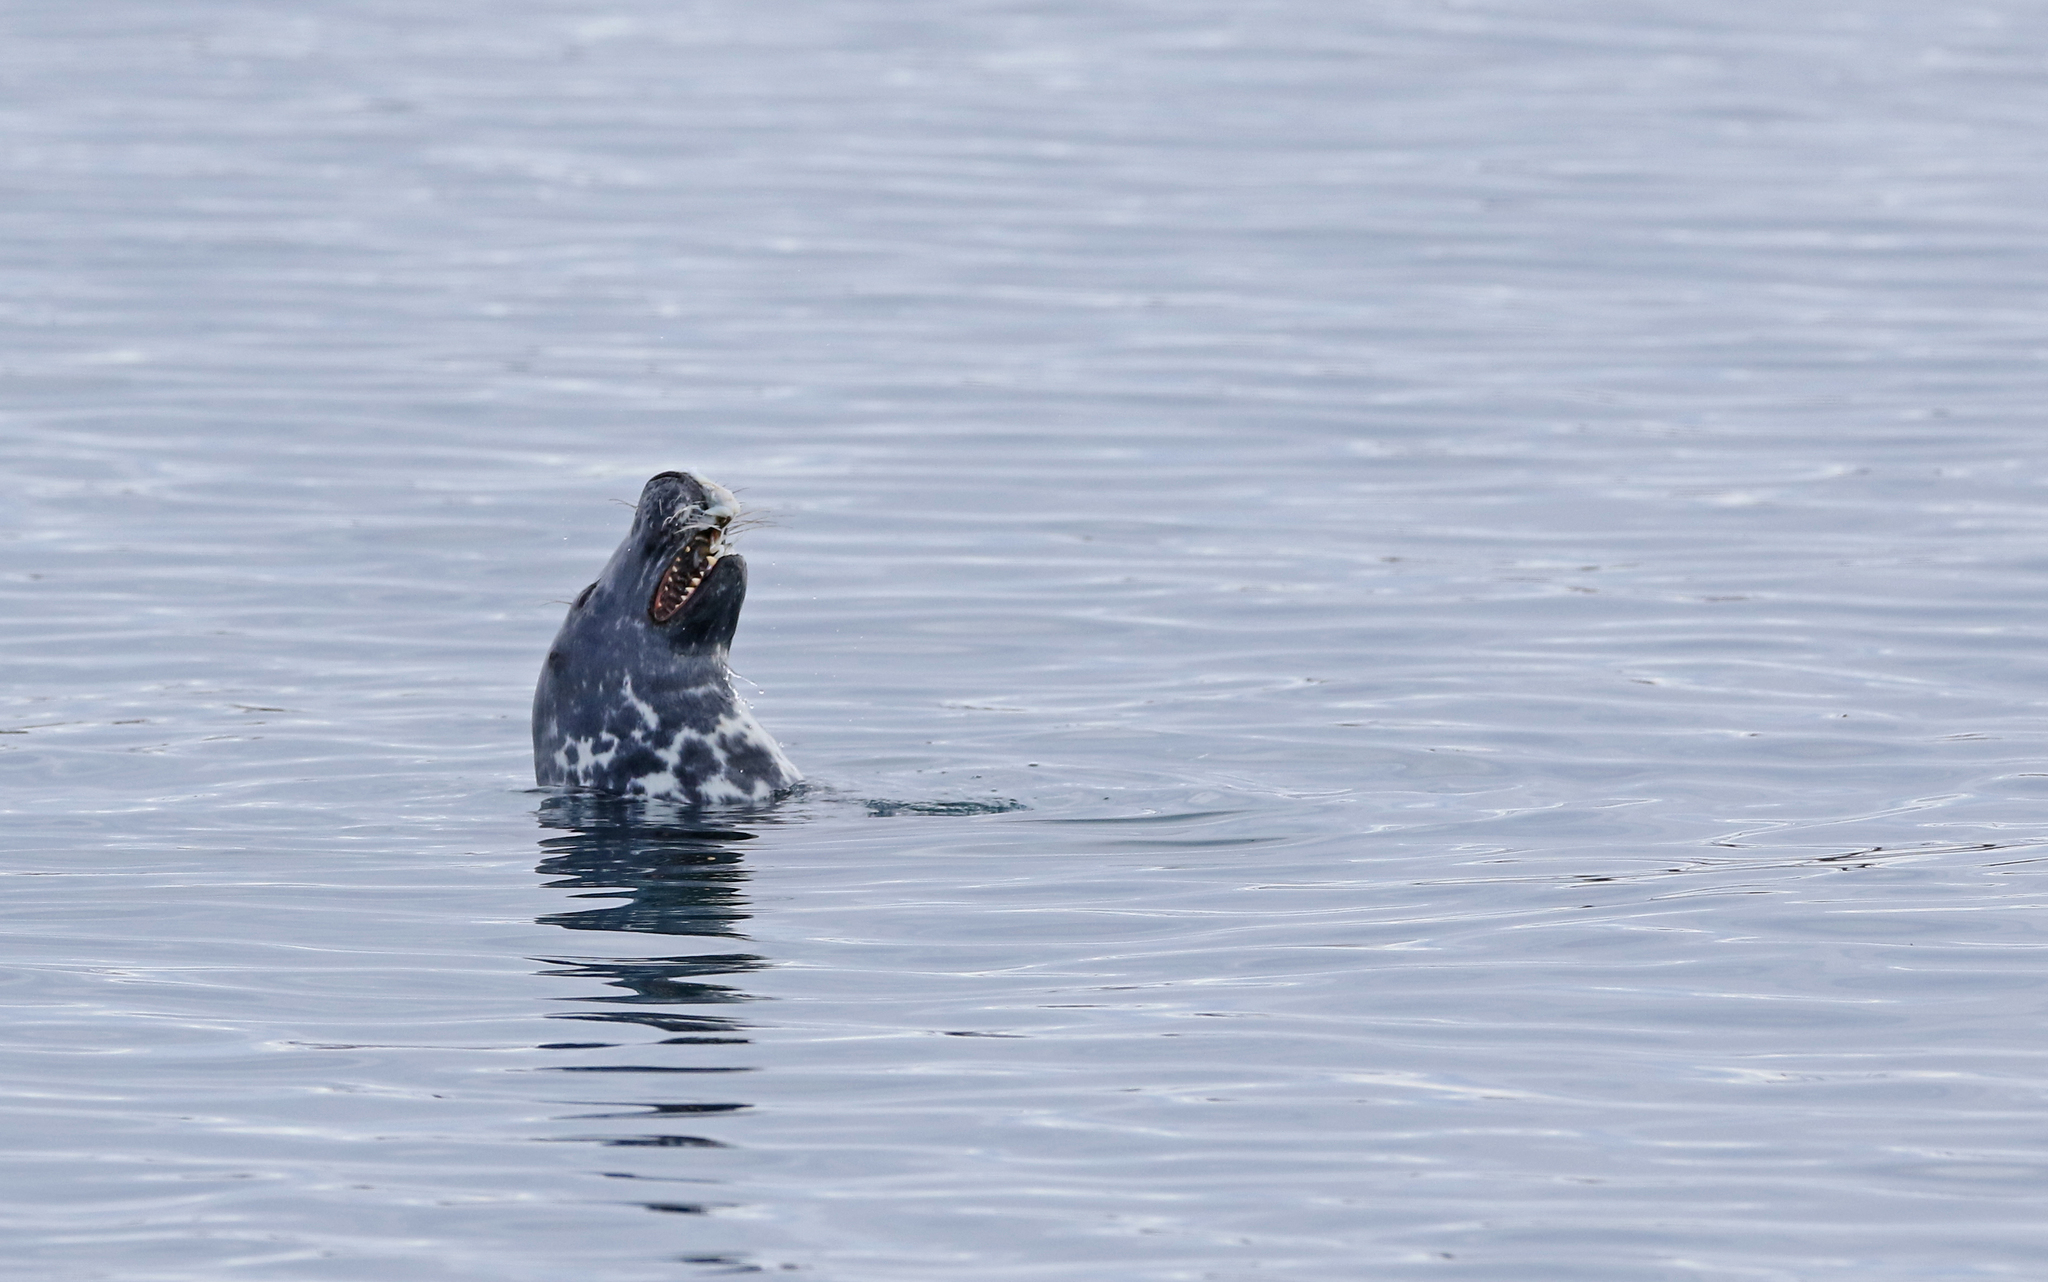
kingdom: Animalia
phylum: Chordata
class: Mammalia
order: Carnivora
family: Phocidae
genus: Halichoerus
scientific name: Halichoerus grypus
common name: Grey seal
